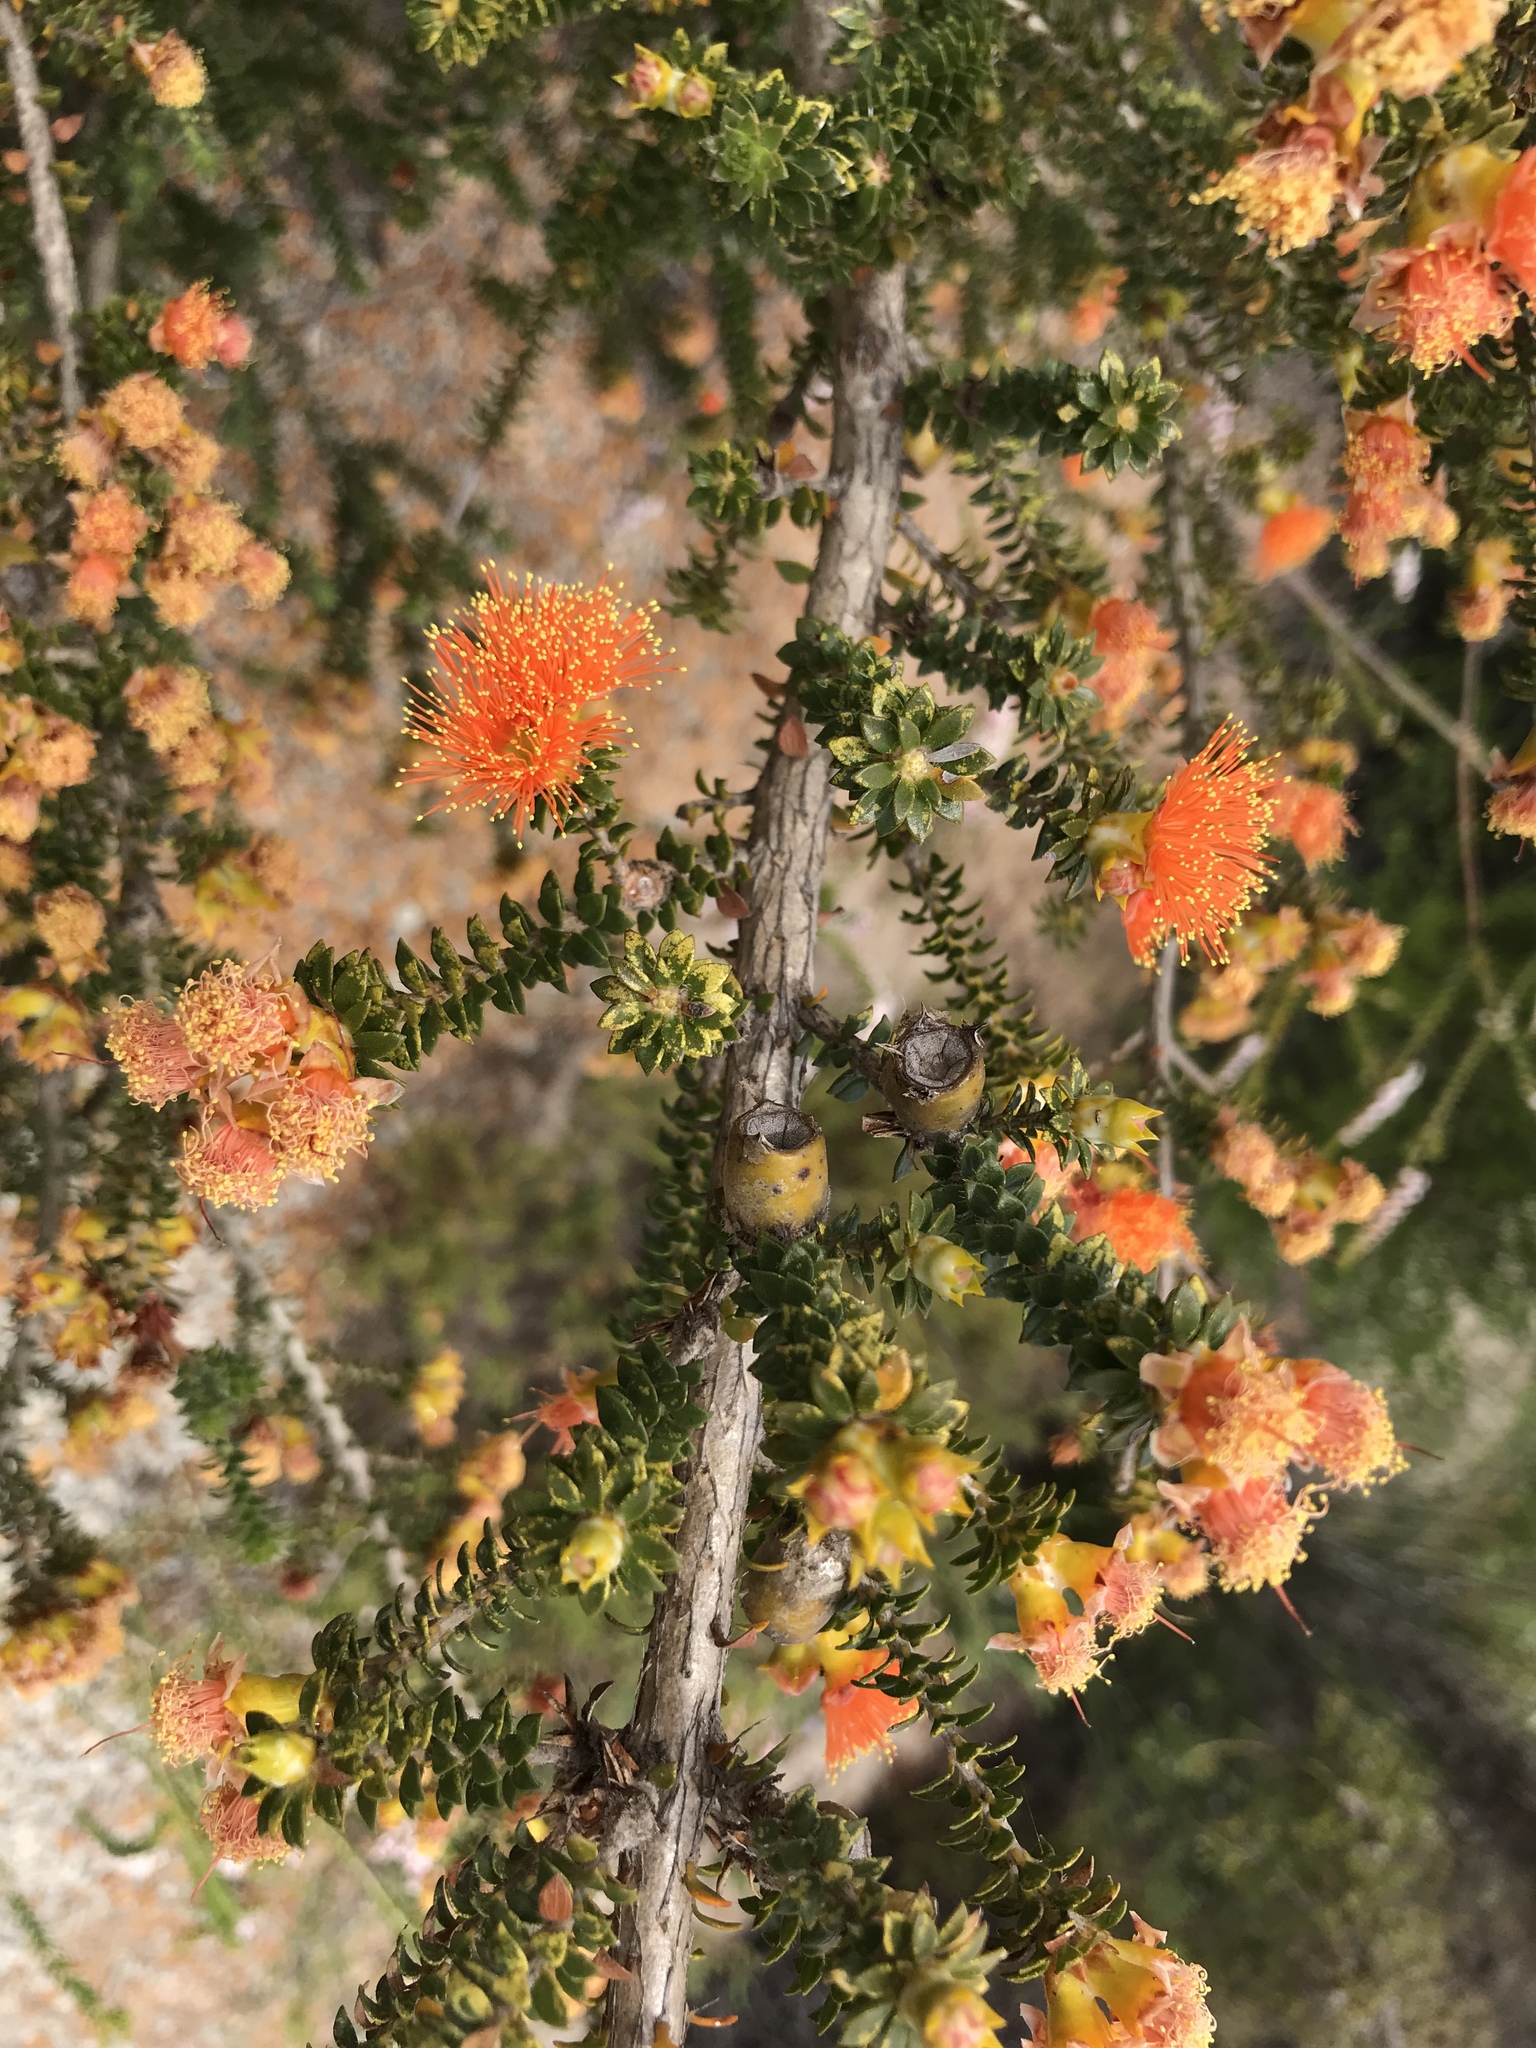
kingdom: Plantae
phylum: Tracheophyta
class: Magnoliopsida
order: Myrtales
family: Myrtaceae
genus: Melaleuca
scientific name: Melaleuca beaufortioides
